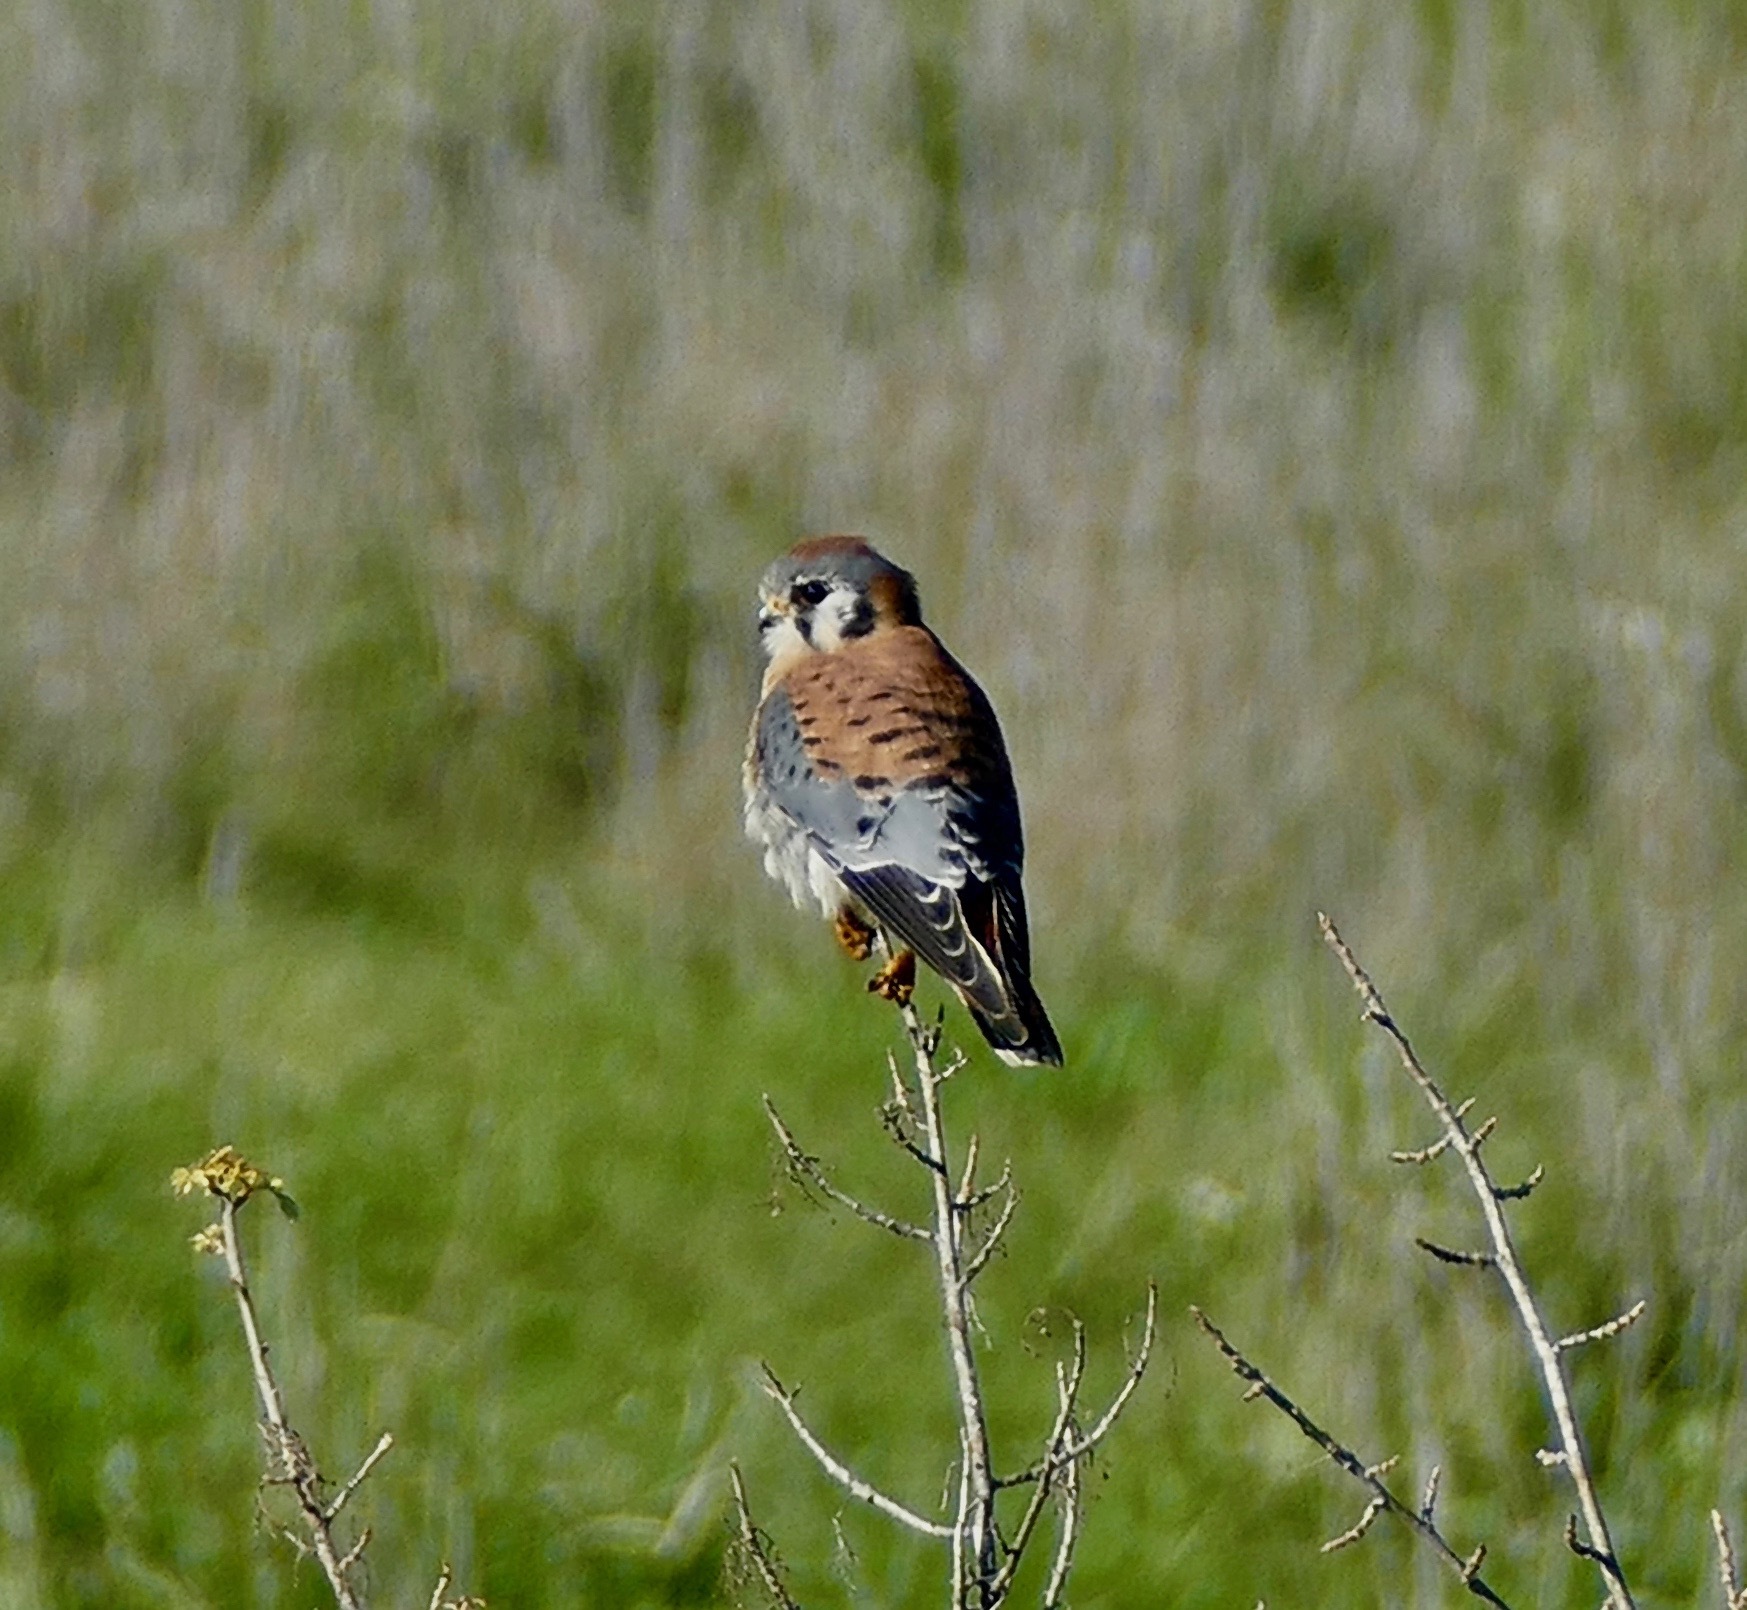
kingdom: Animalia
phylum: Chordata
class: Aves
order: Falconiformes
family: Falconidae
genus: Falco
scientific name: Falco sparverius
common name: American kestrel
